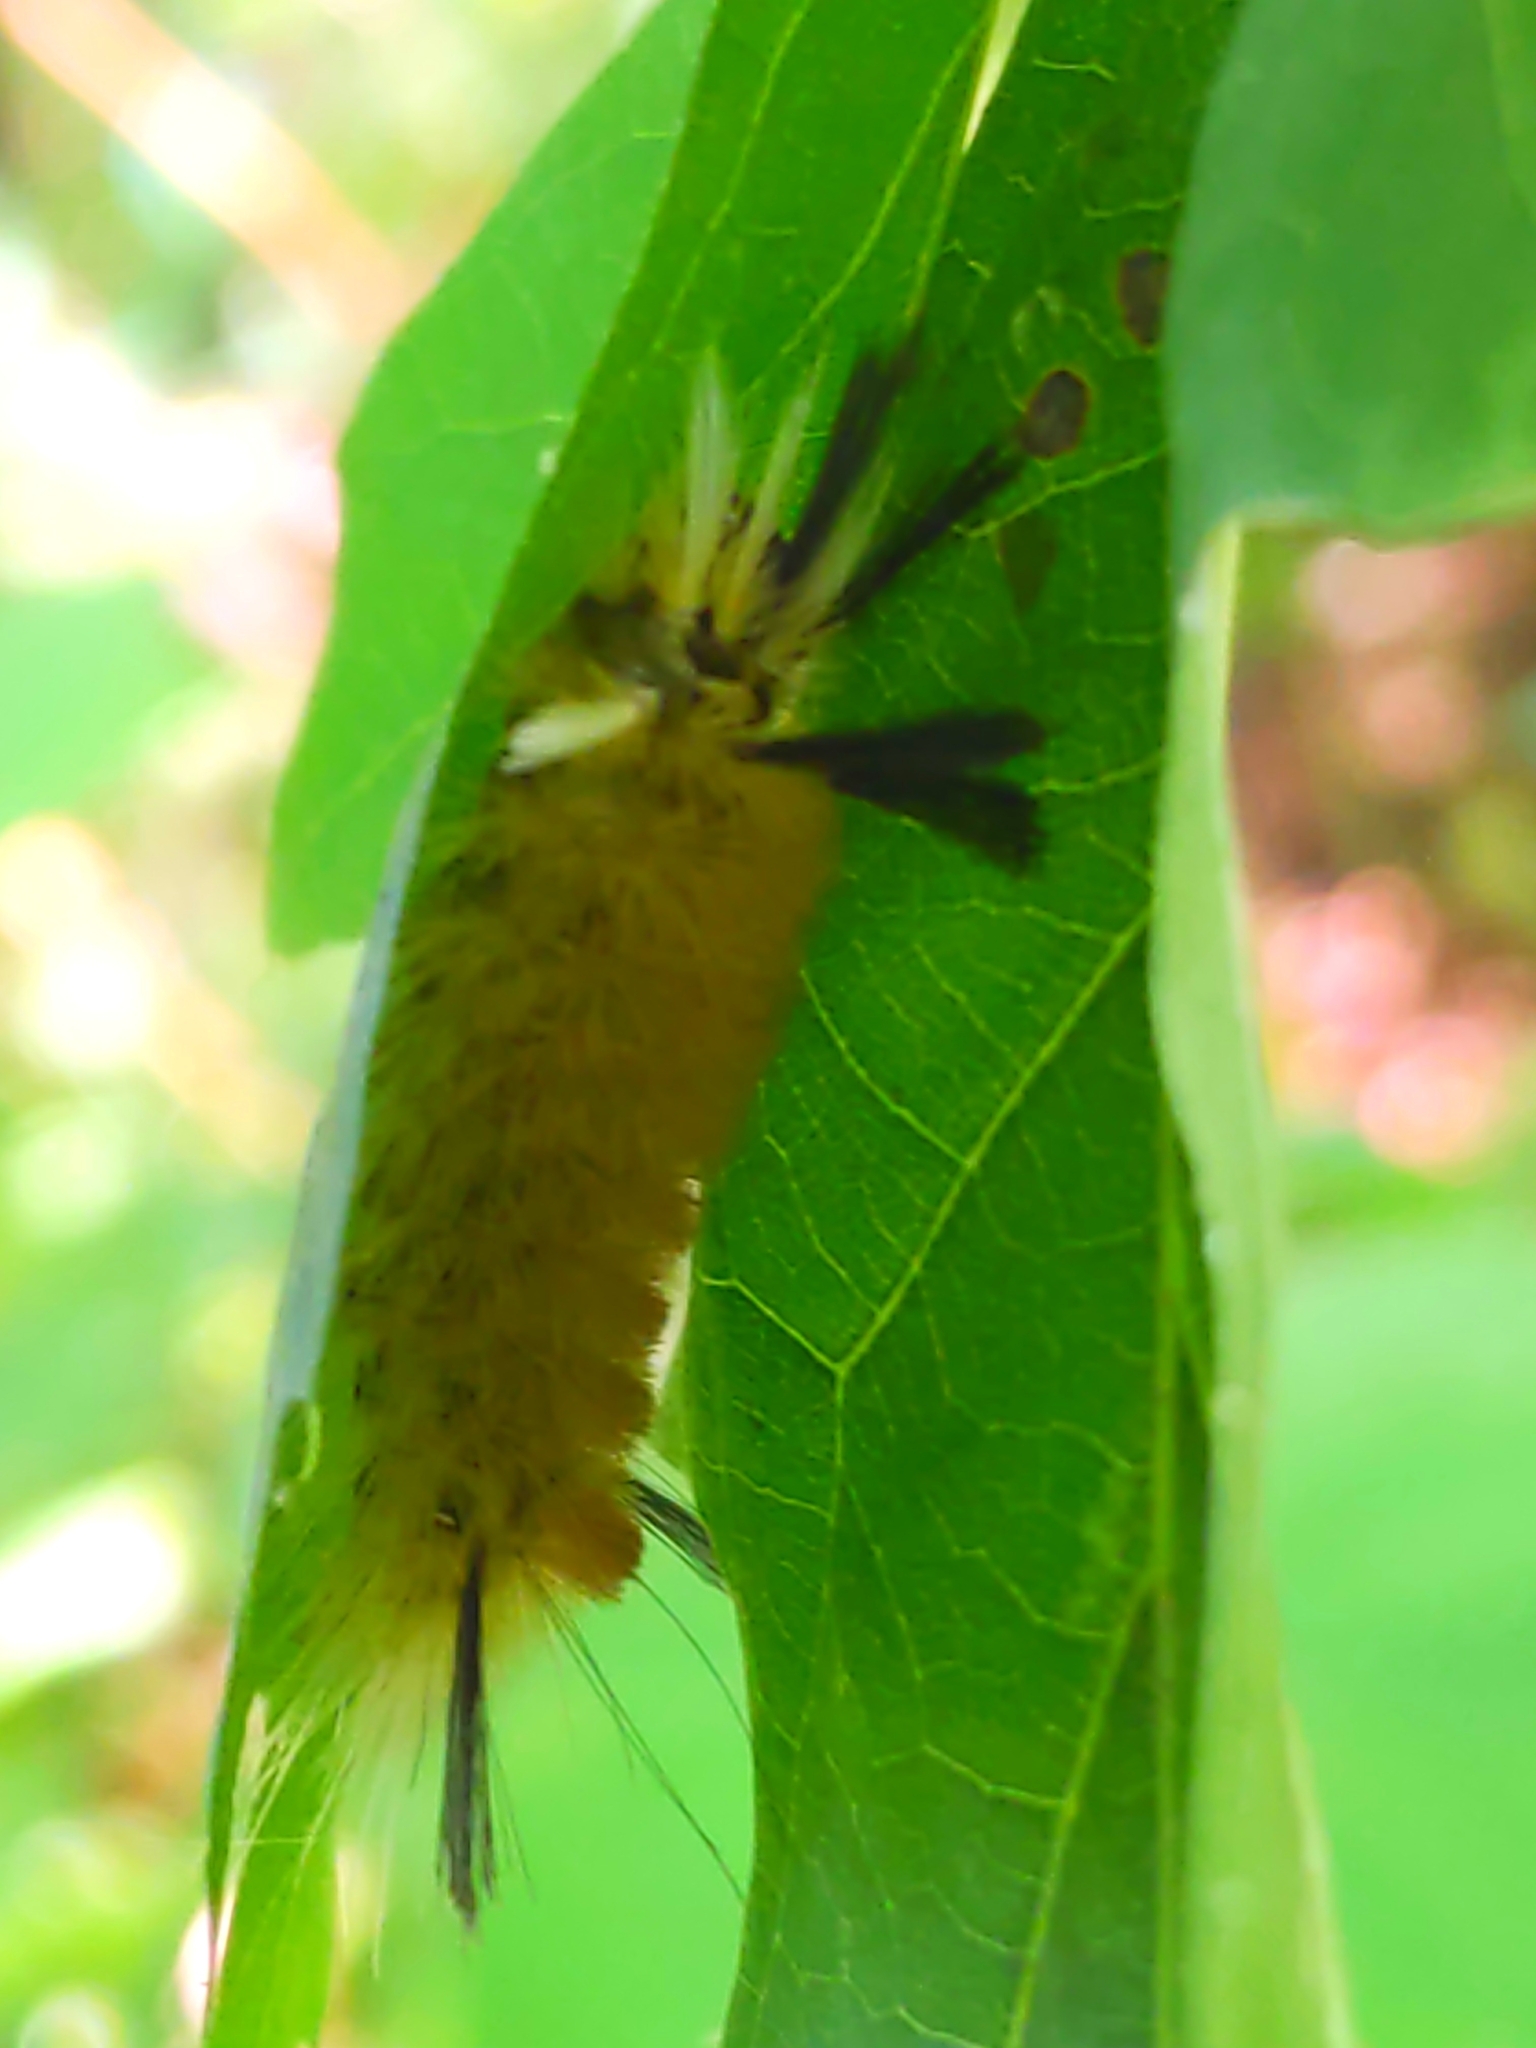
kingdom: Animalia
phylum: Arthropoda
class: Insecta
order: Lepidoptera
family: Erebidae
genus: Halysidota
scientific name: Halysidota tessellaris
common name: Banded tussock moth
